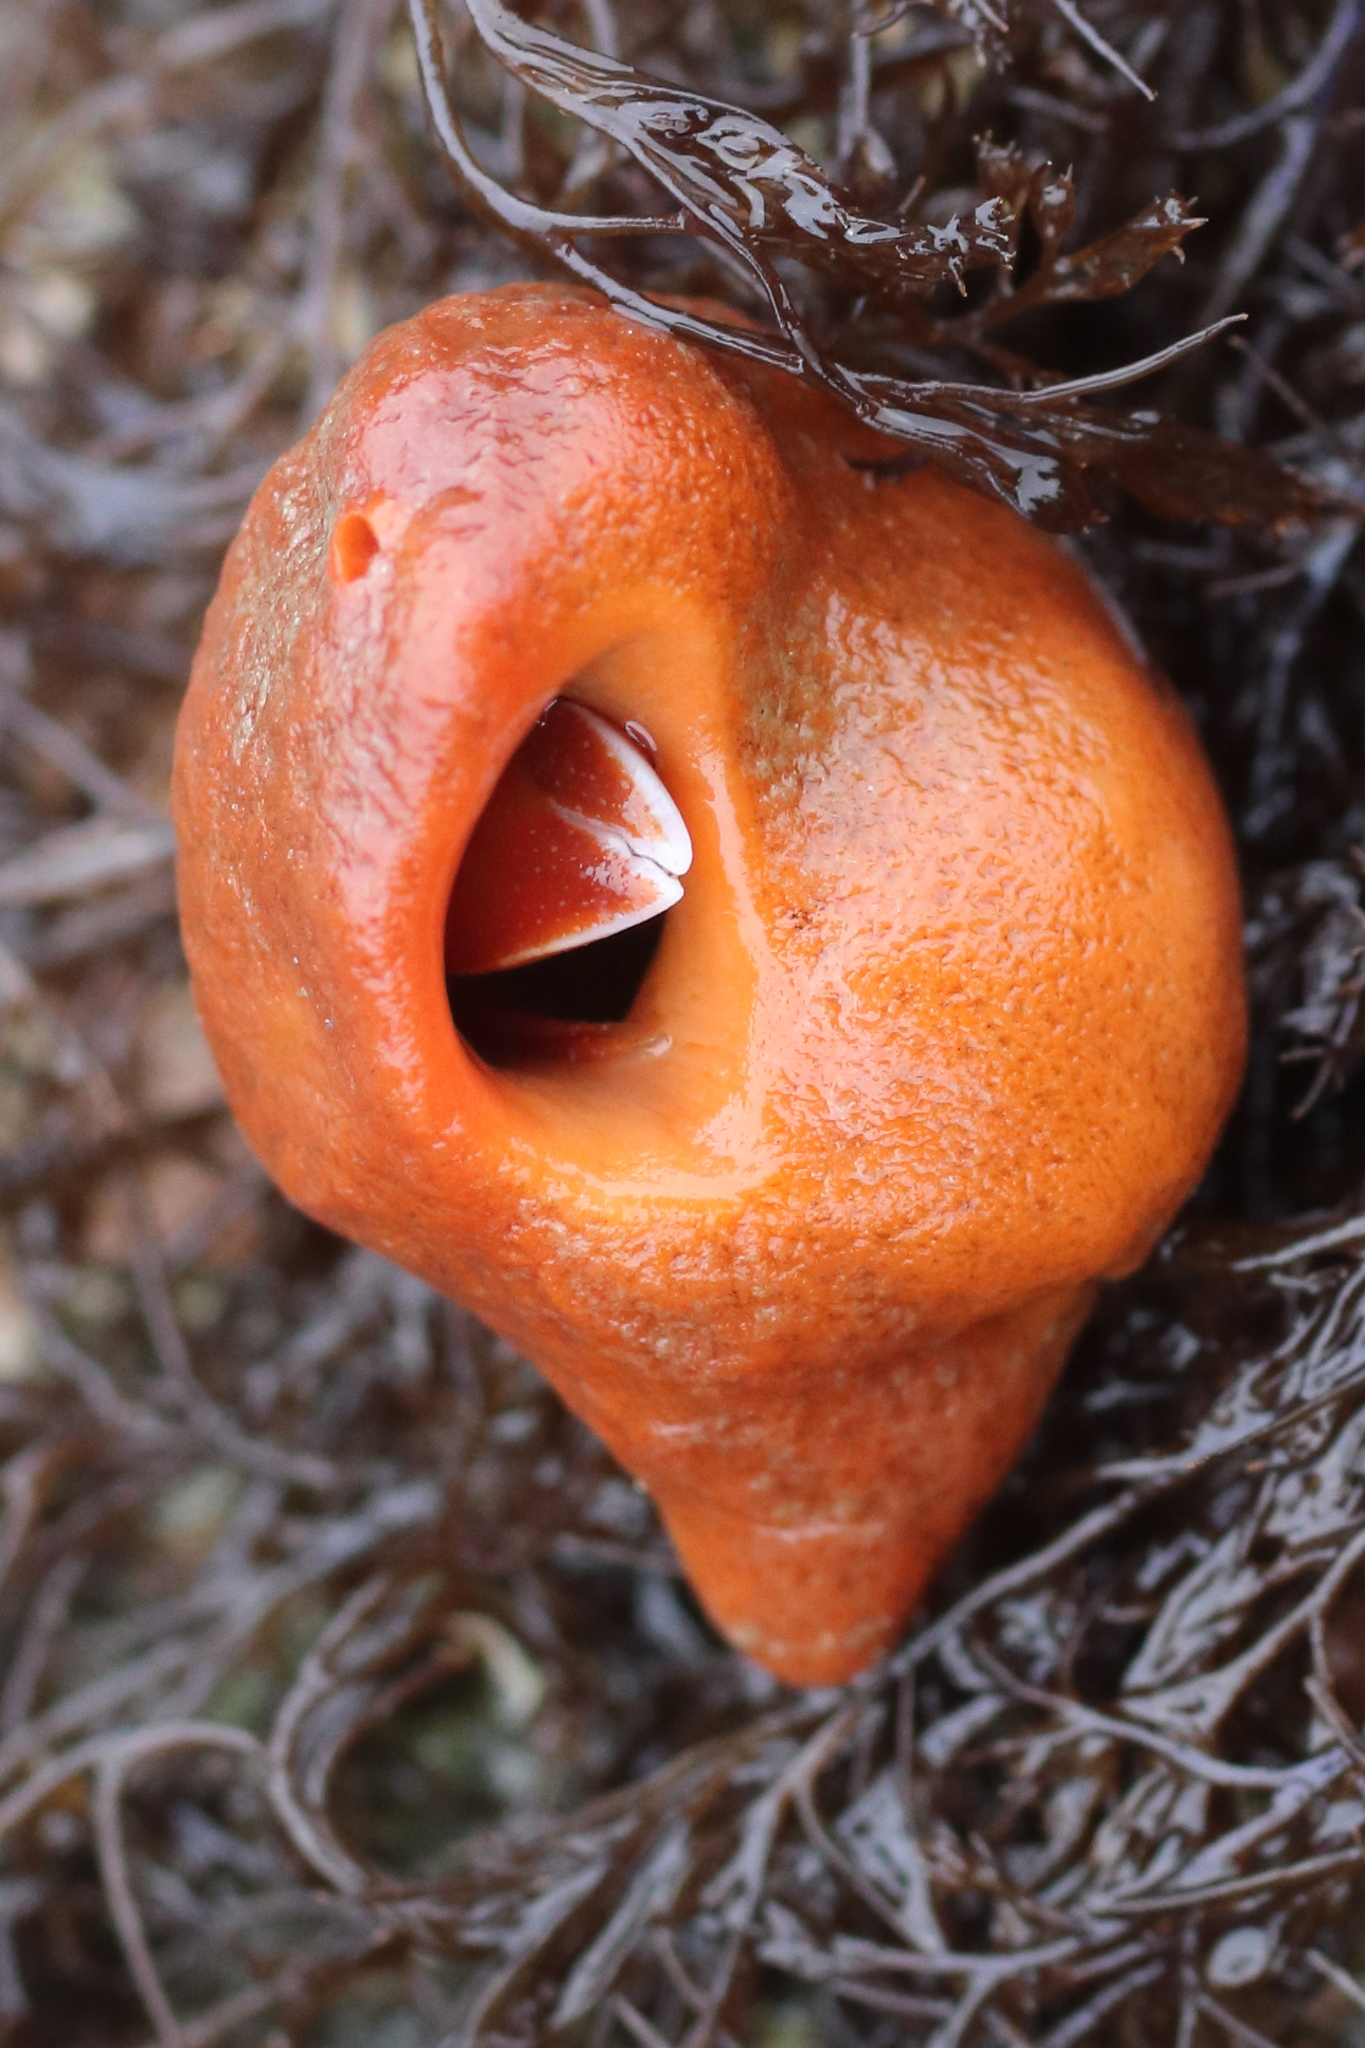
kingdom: Animalia
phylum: Arthropoda
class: Malacostraca
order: Decapoda
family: Paguridae
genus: Elassochirus
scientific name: Elassochirus gilli
